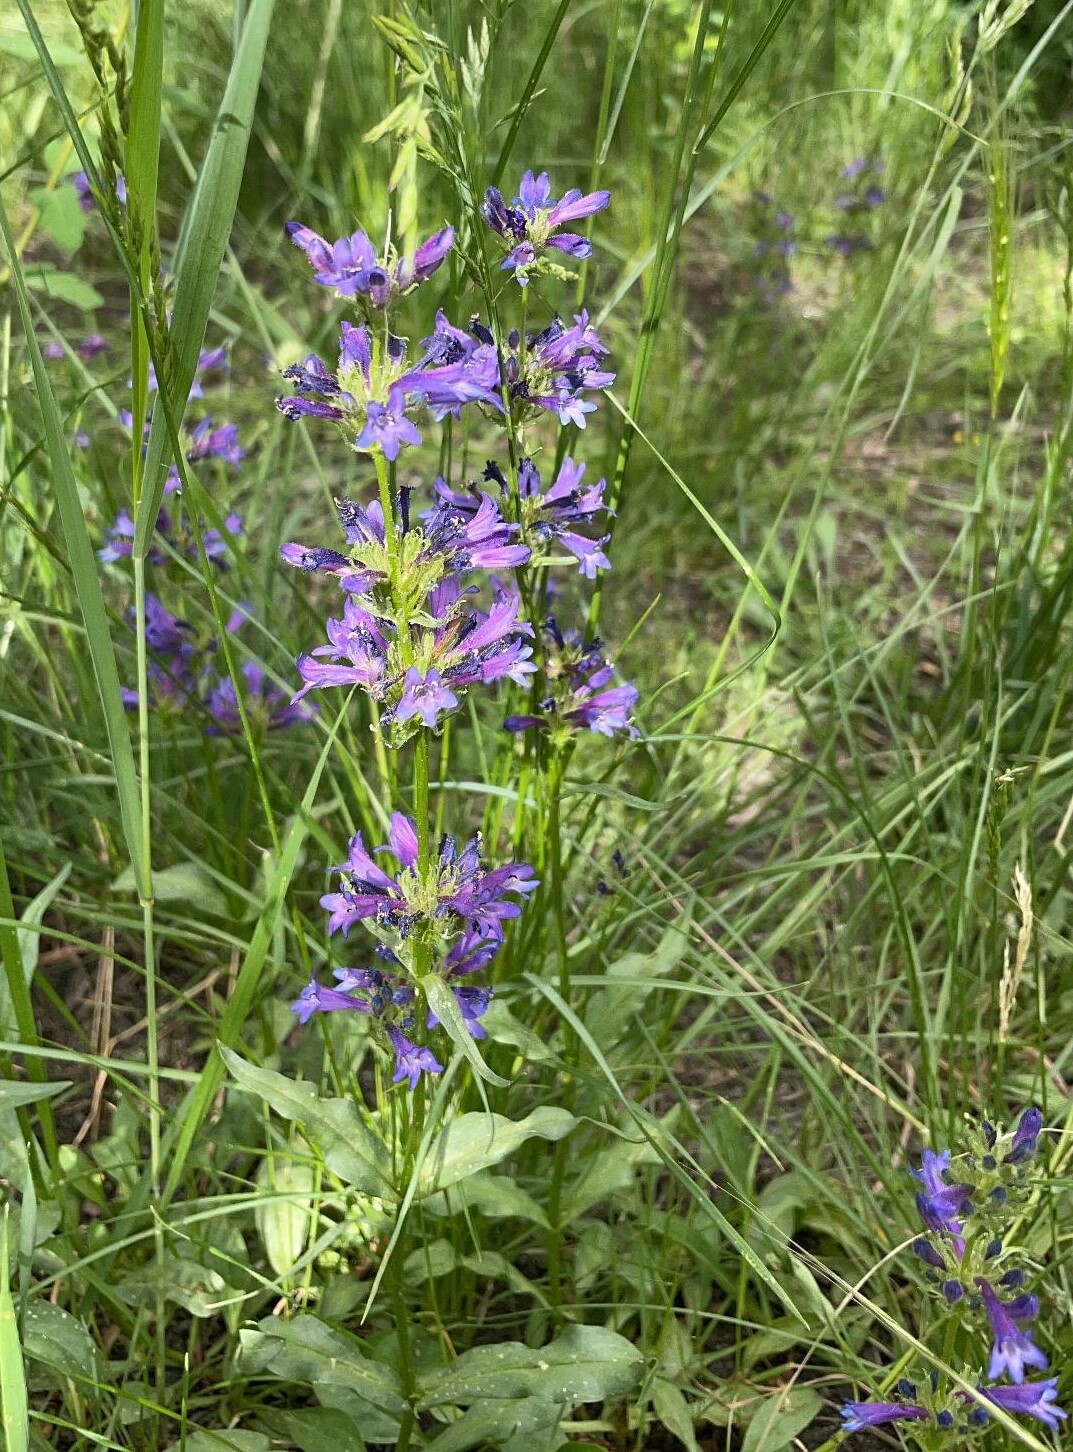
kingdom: Plantae
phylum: Tracheophyta
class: Magnoliopsida
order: Lamiales
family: Plantaginaceae
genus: Penstemon
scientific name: Penstemon rydbergii
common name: Rydberg's beardtongue
